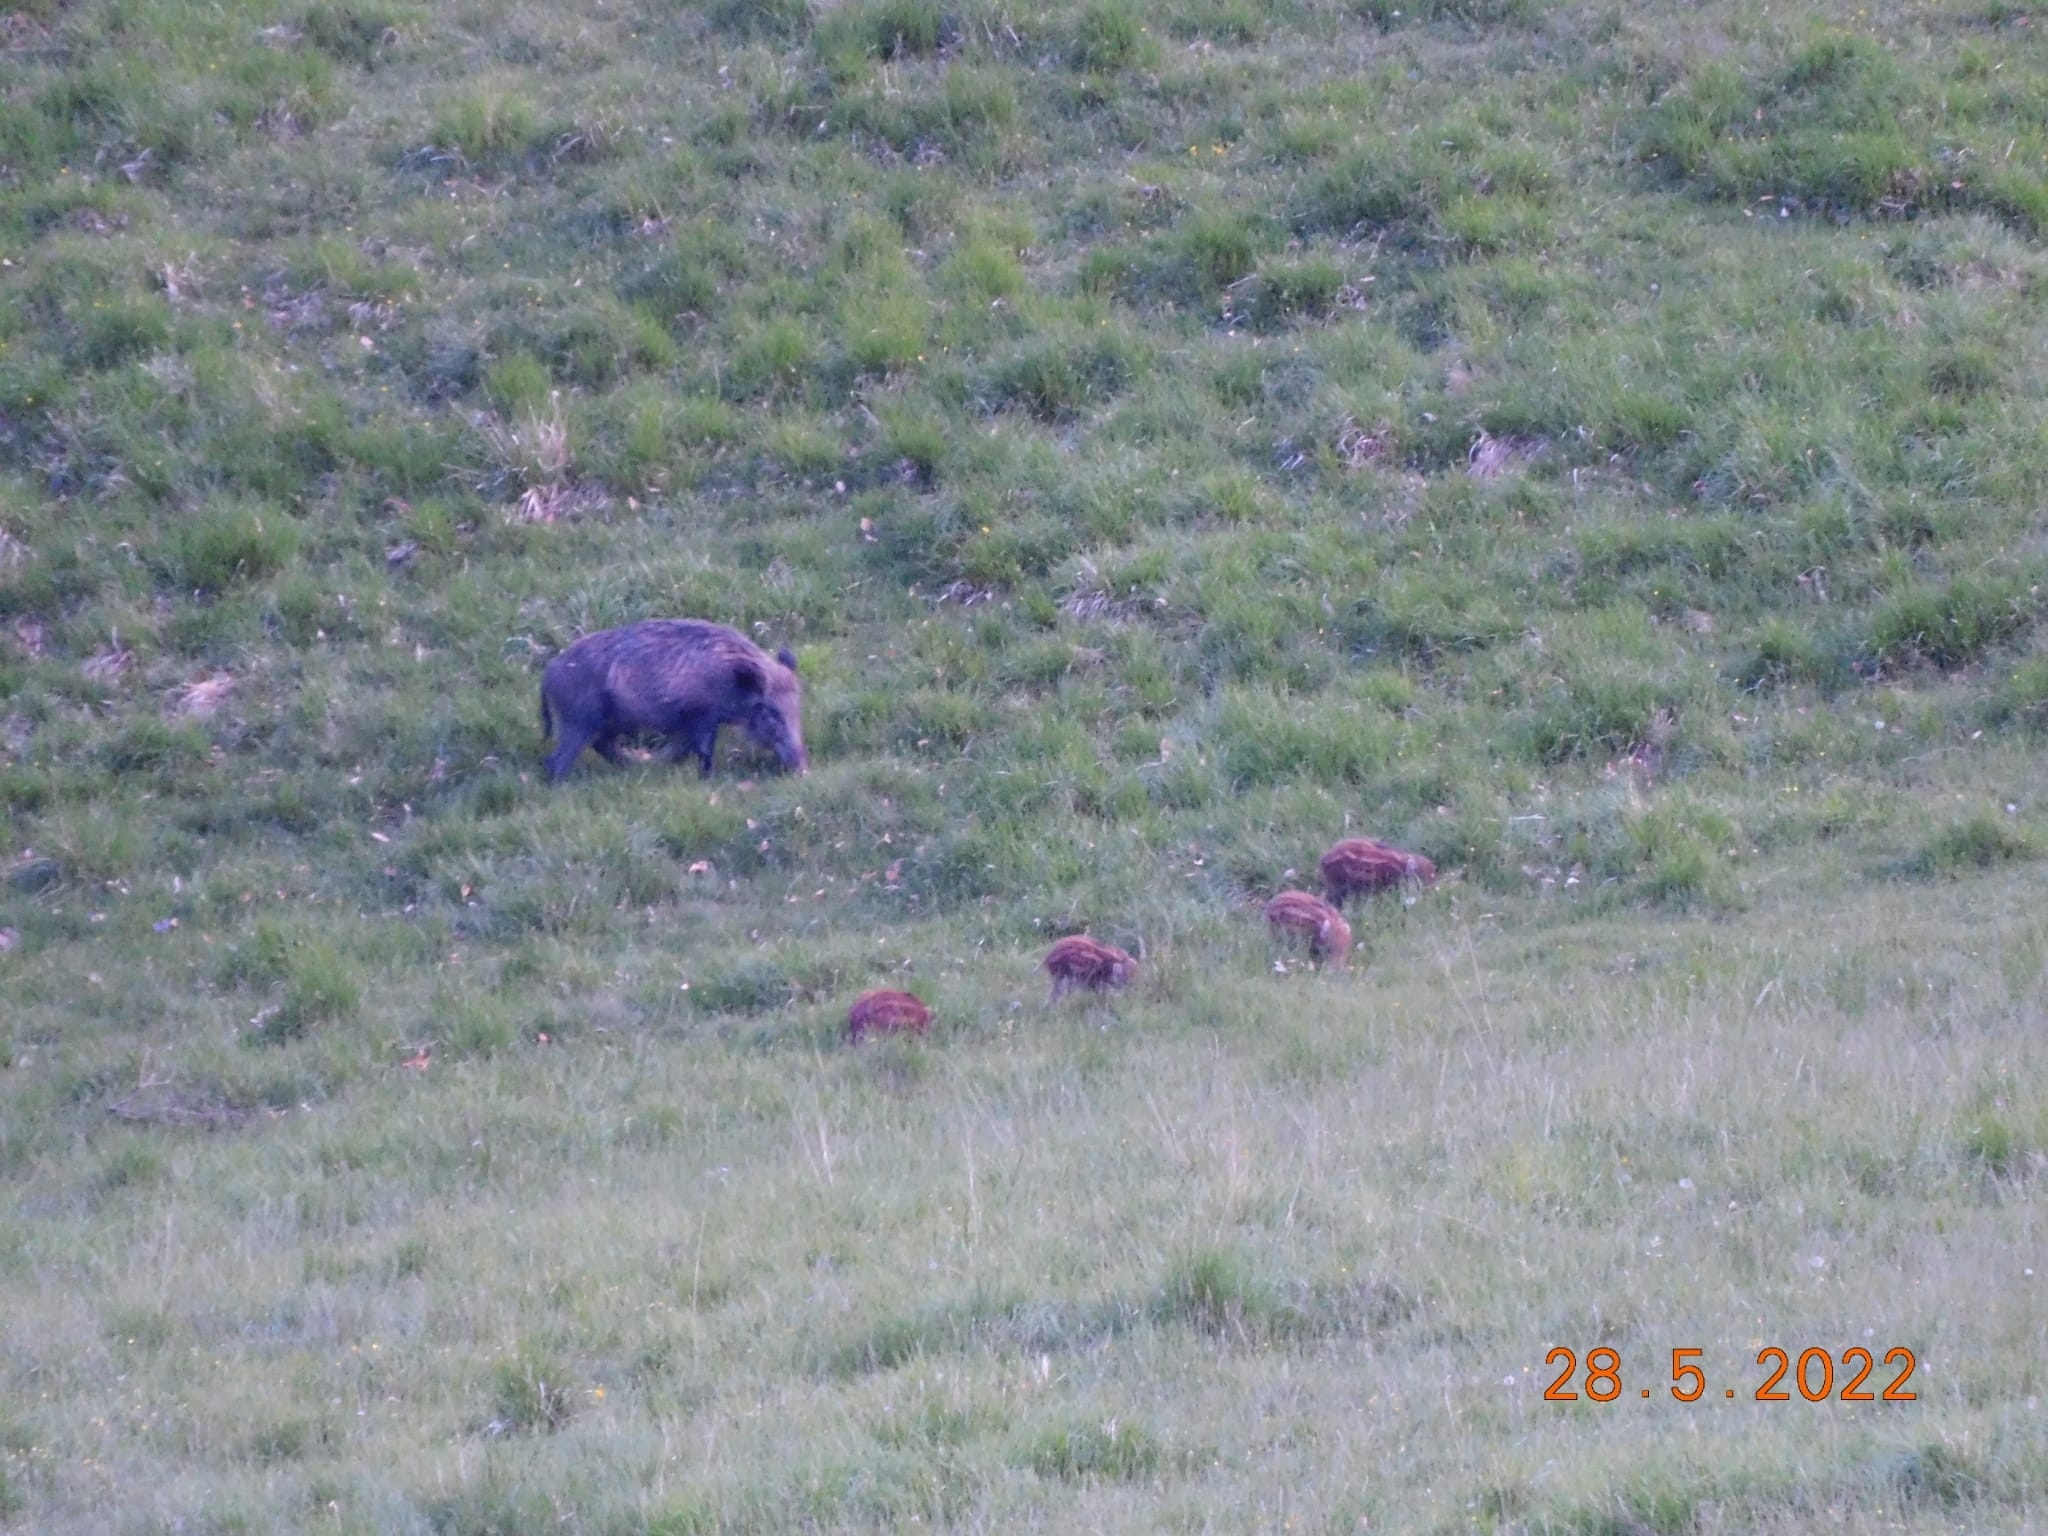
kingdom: Animalia
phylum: Chordata
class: Mammalia
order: Artiodactyla
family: Suidae
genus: Sus
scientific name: Sus scrofa
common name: Wild boar
